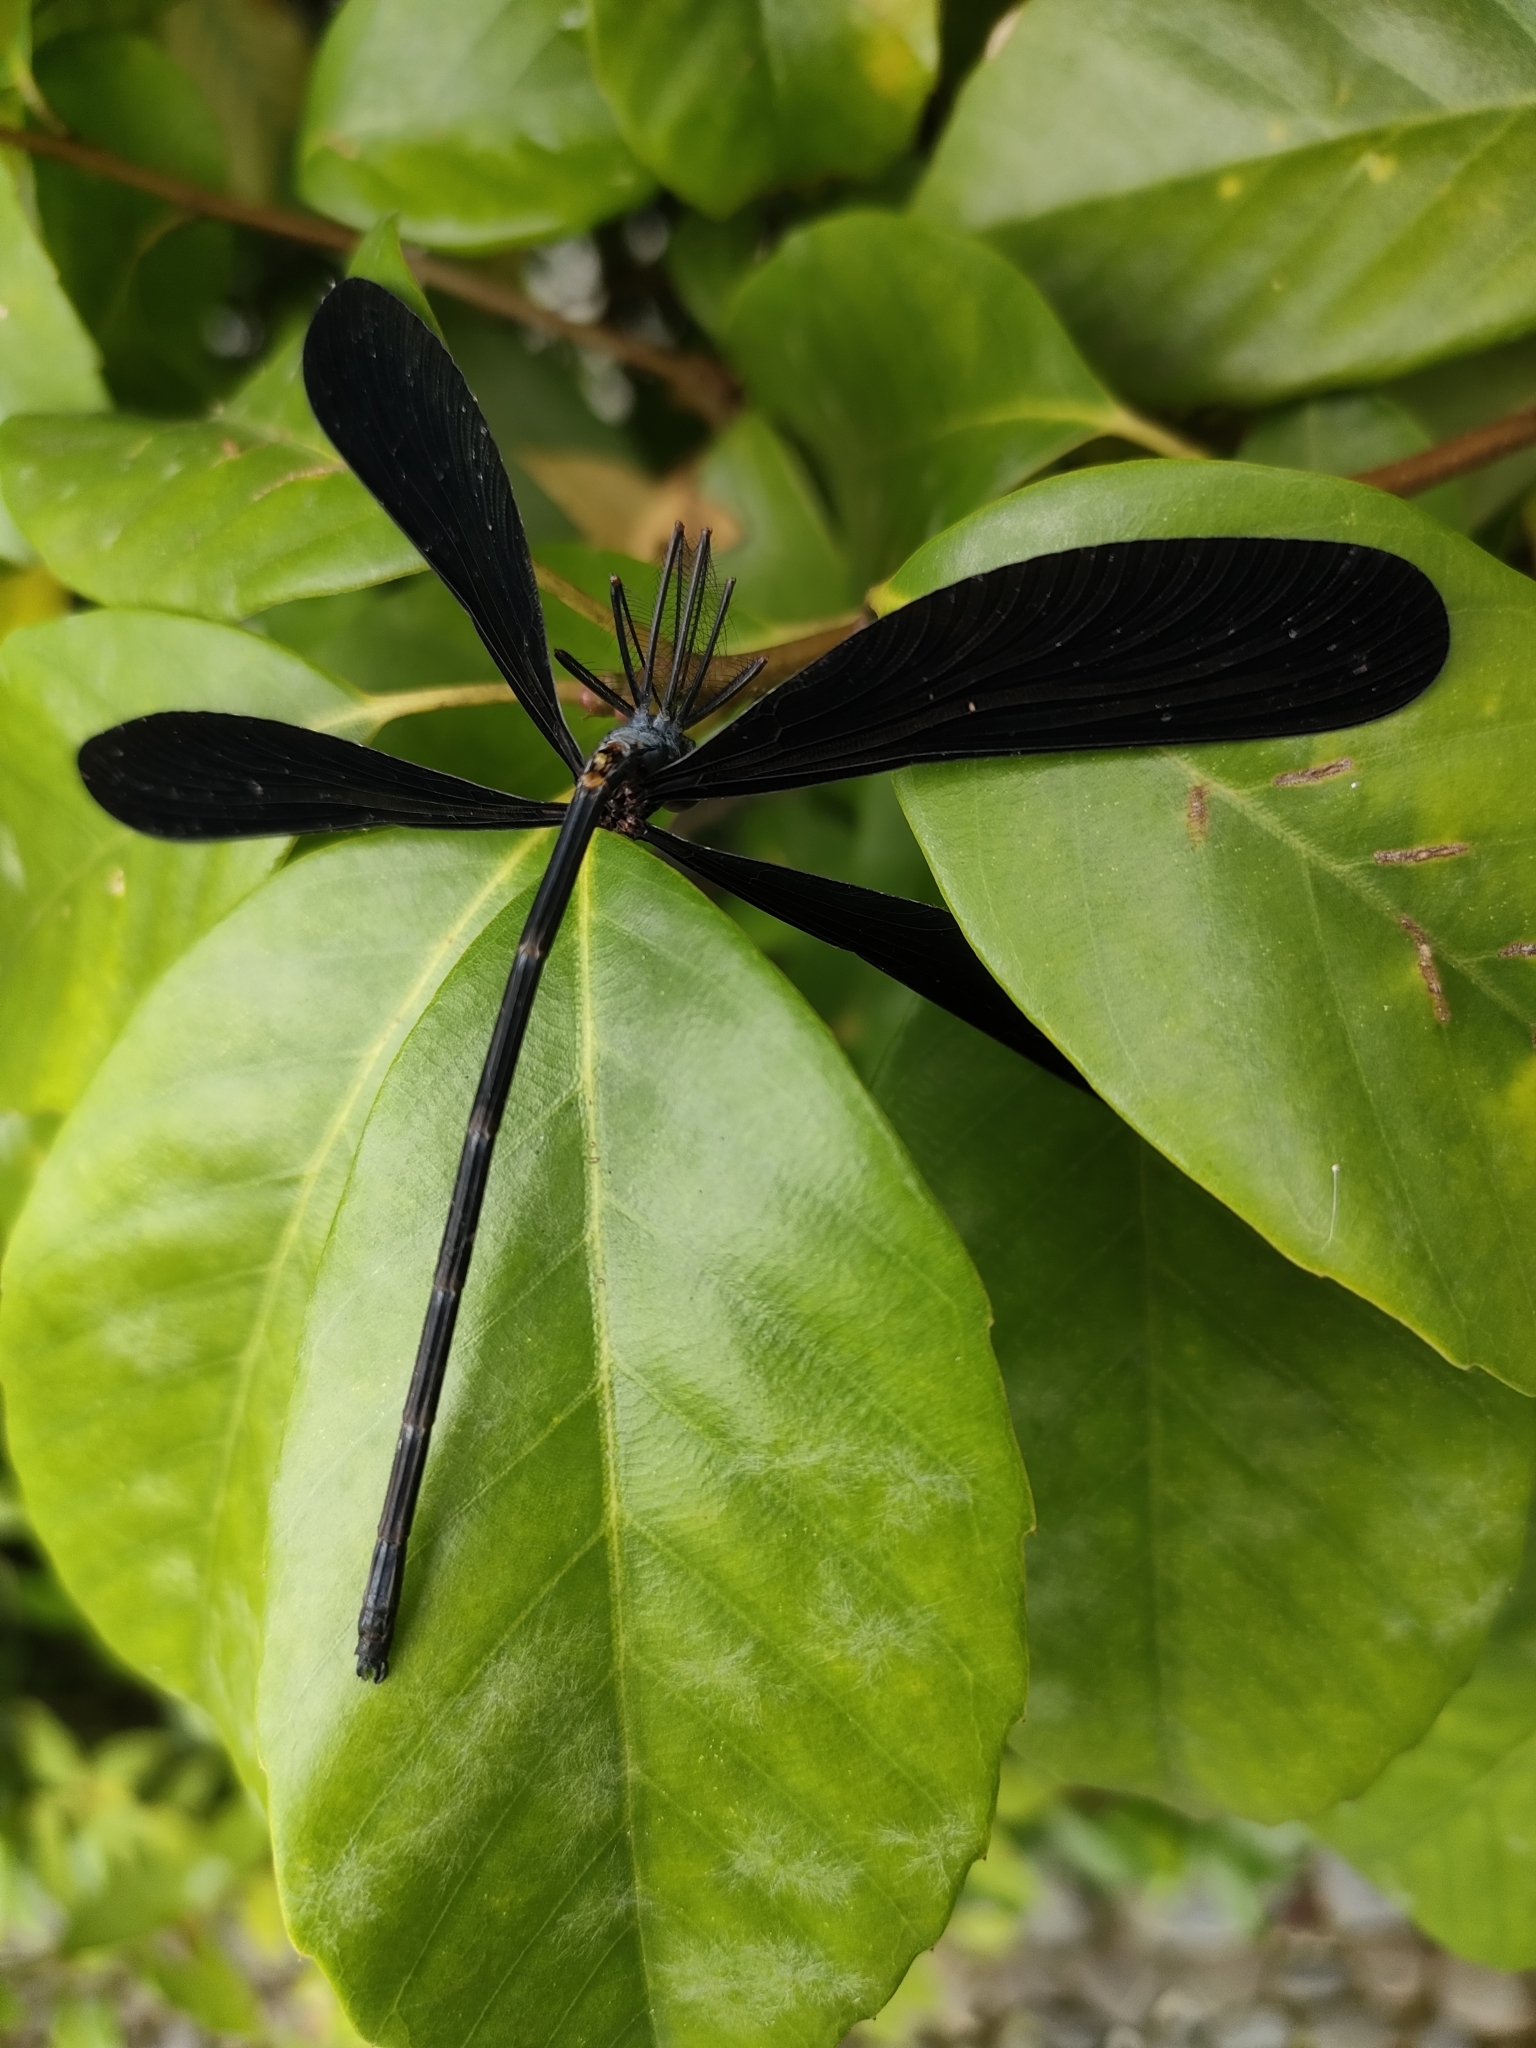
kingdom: Animalia
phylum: Arthropoda
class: Insecta
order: Odonata
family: Calopterygidae
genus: Atrocalopteryx
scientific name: Atrocalopteryx atrata
